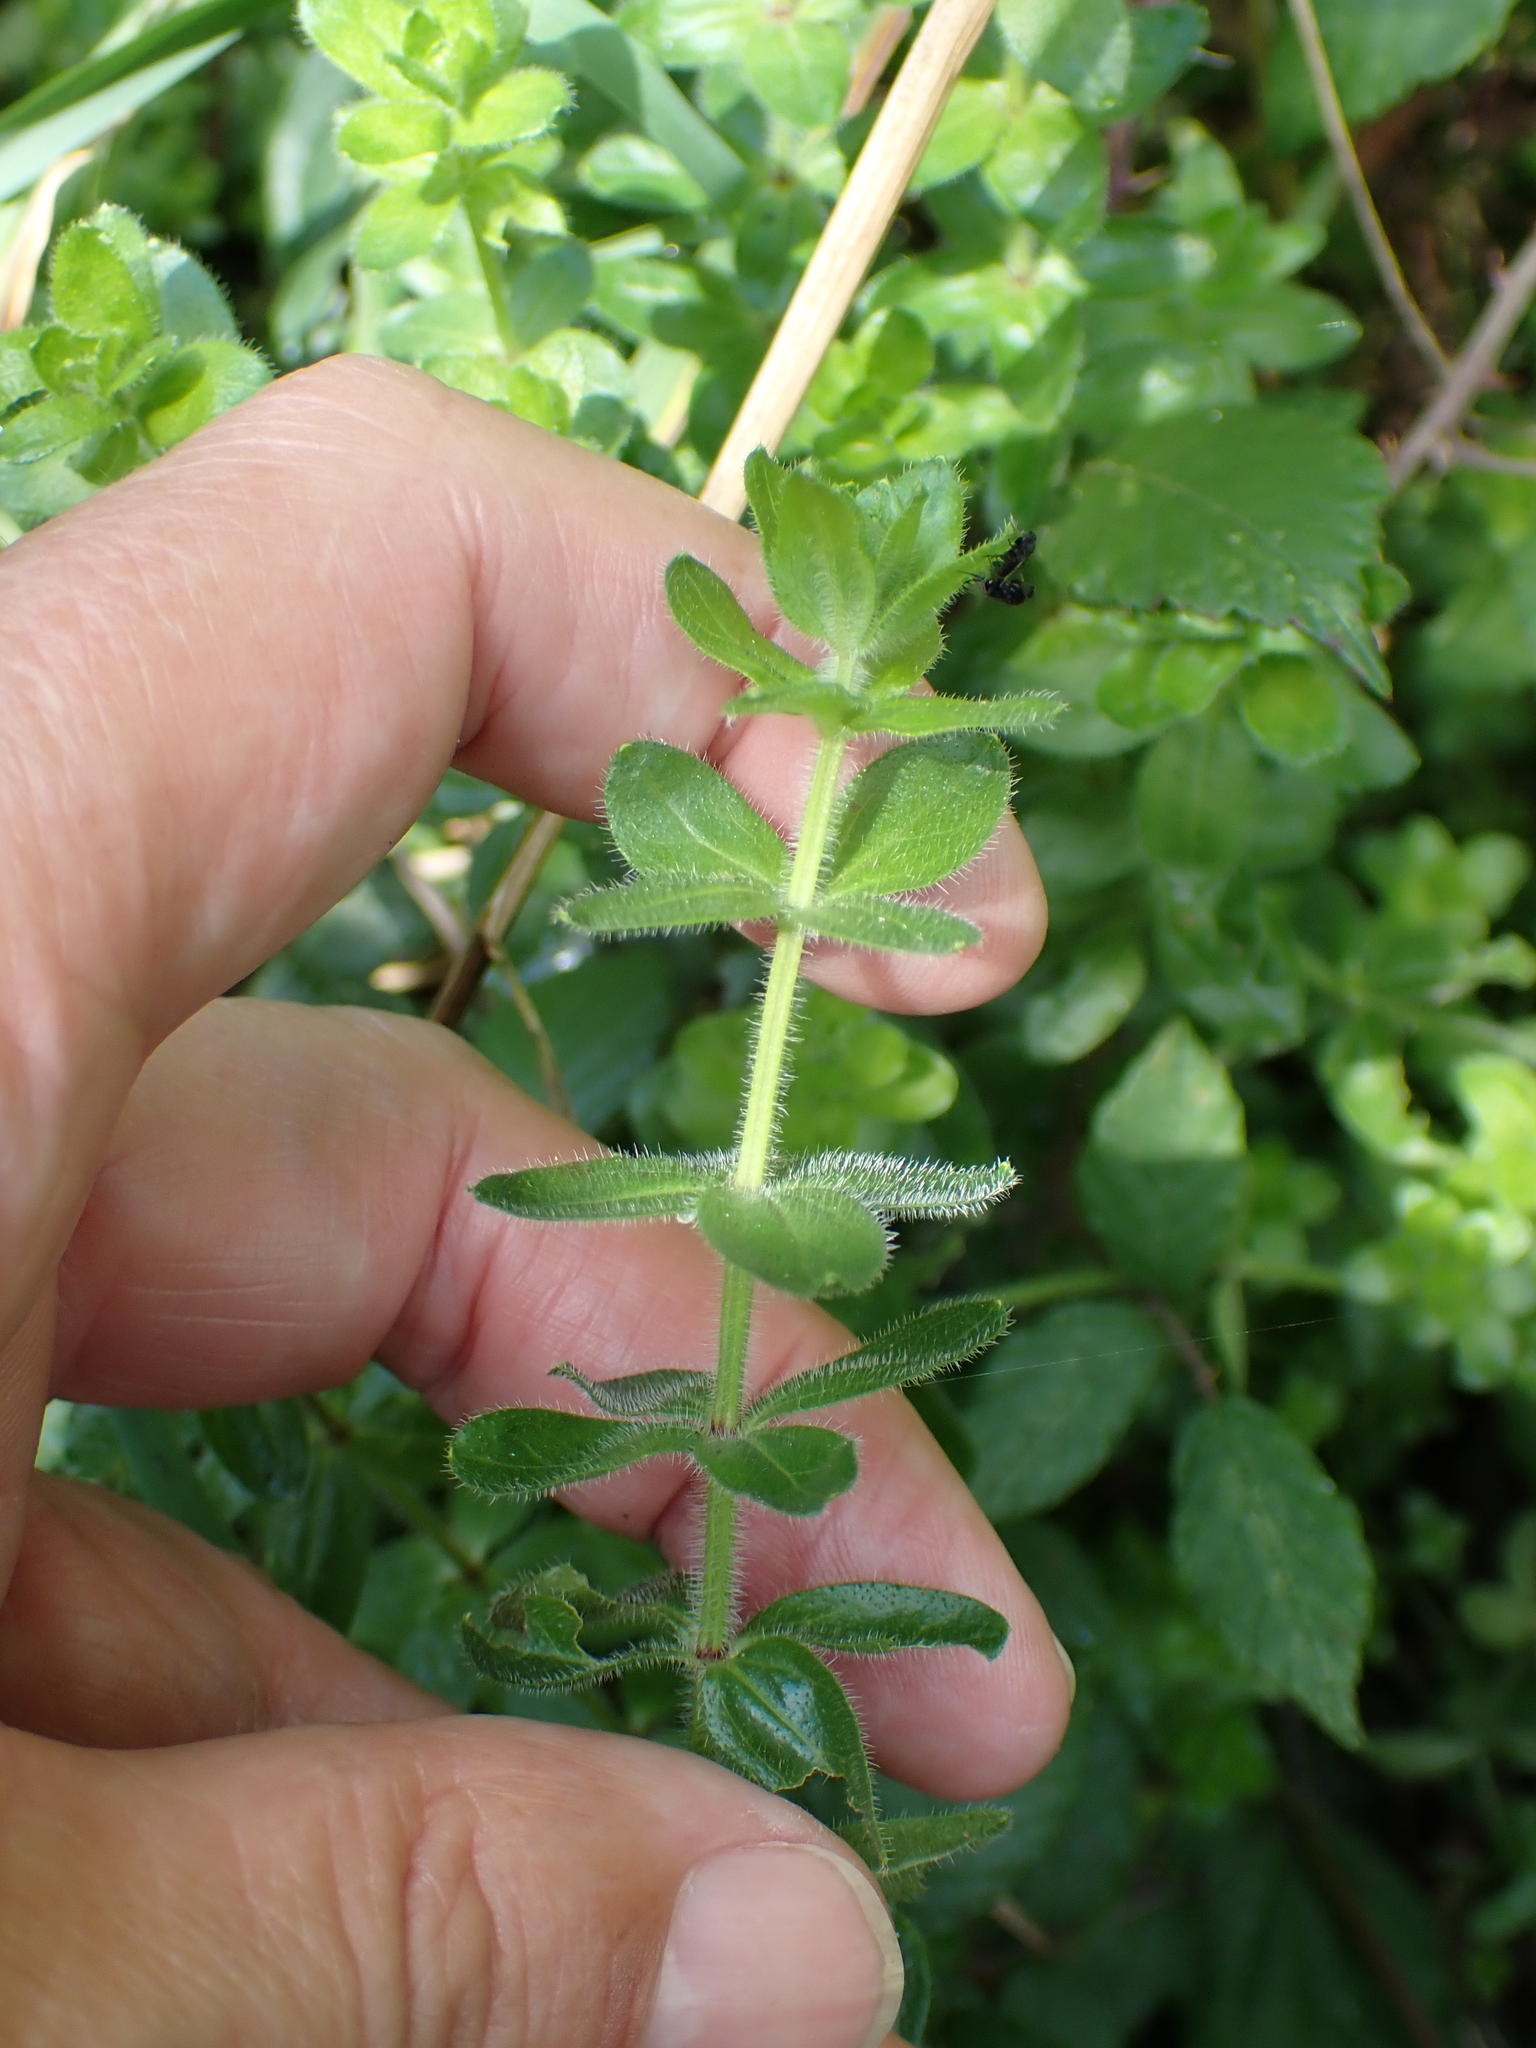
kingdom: Plantae
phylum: Tracheophyta
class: Magnoliopsida
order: Gentianales
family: Rubiaceae
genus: Cruciata
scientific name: Cruciata laevipes
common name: Crosswort
